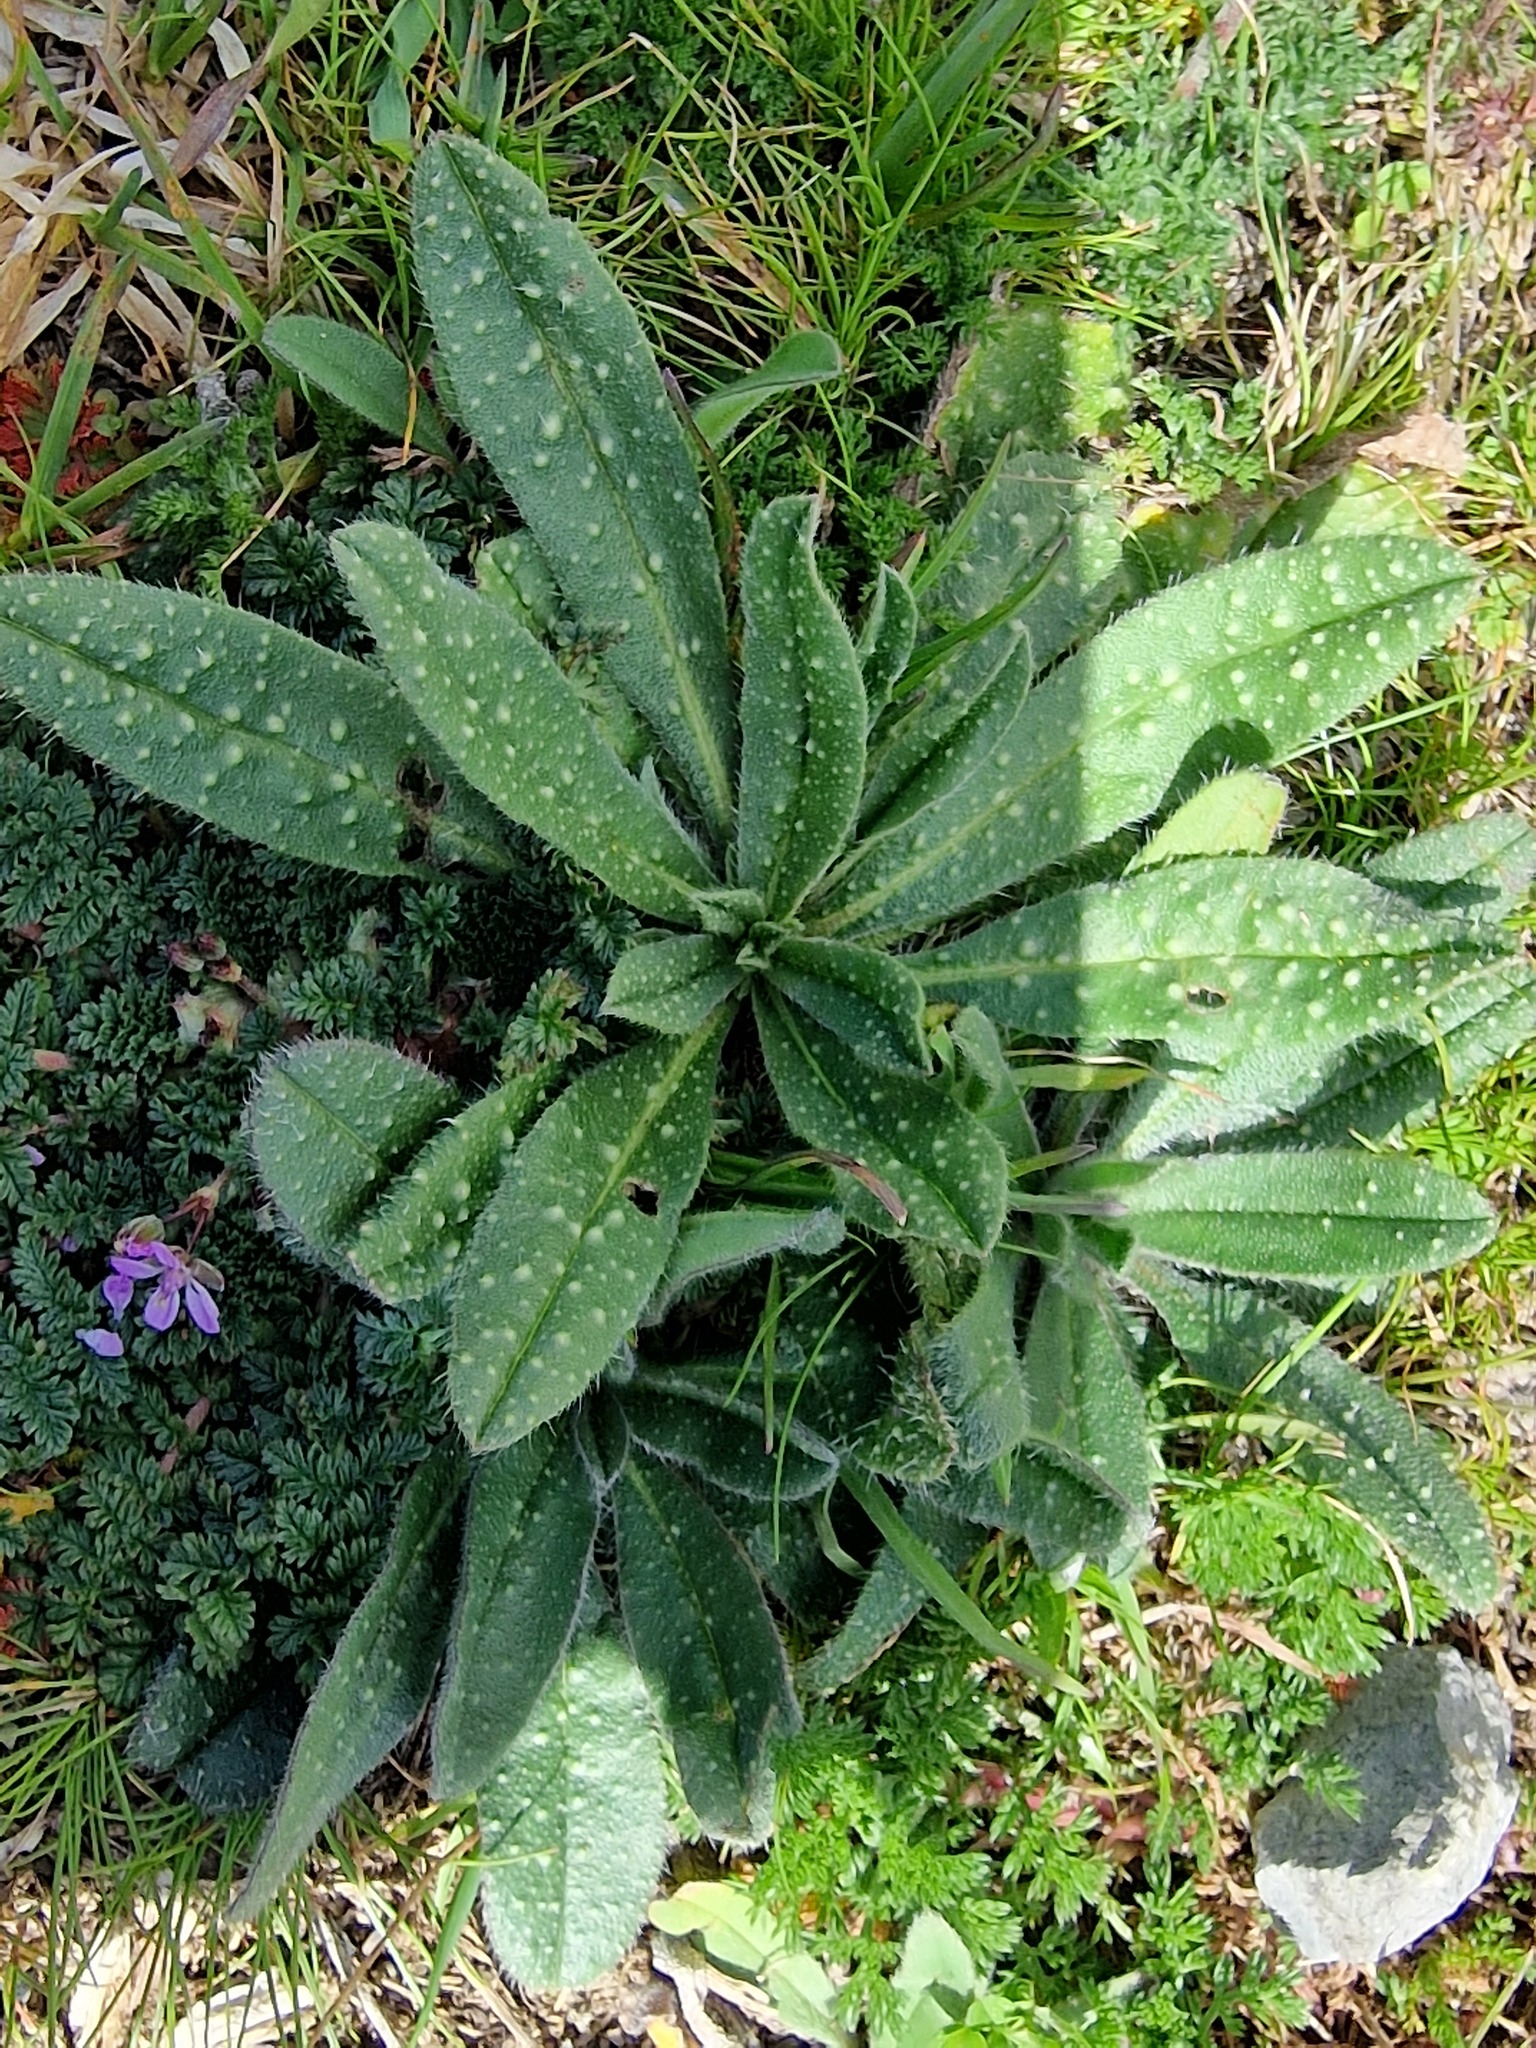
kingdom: Plantae
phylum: Tracheophyta
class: Magnoliopsida
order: Boraginales
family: Boraginaceae
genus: Echium
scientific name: Echium vulgare
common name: Common viper's bugloss
